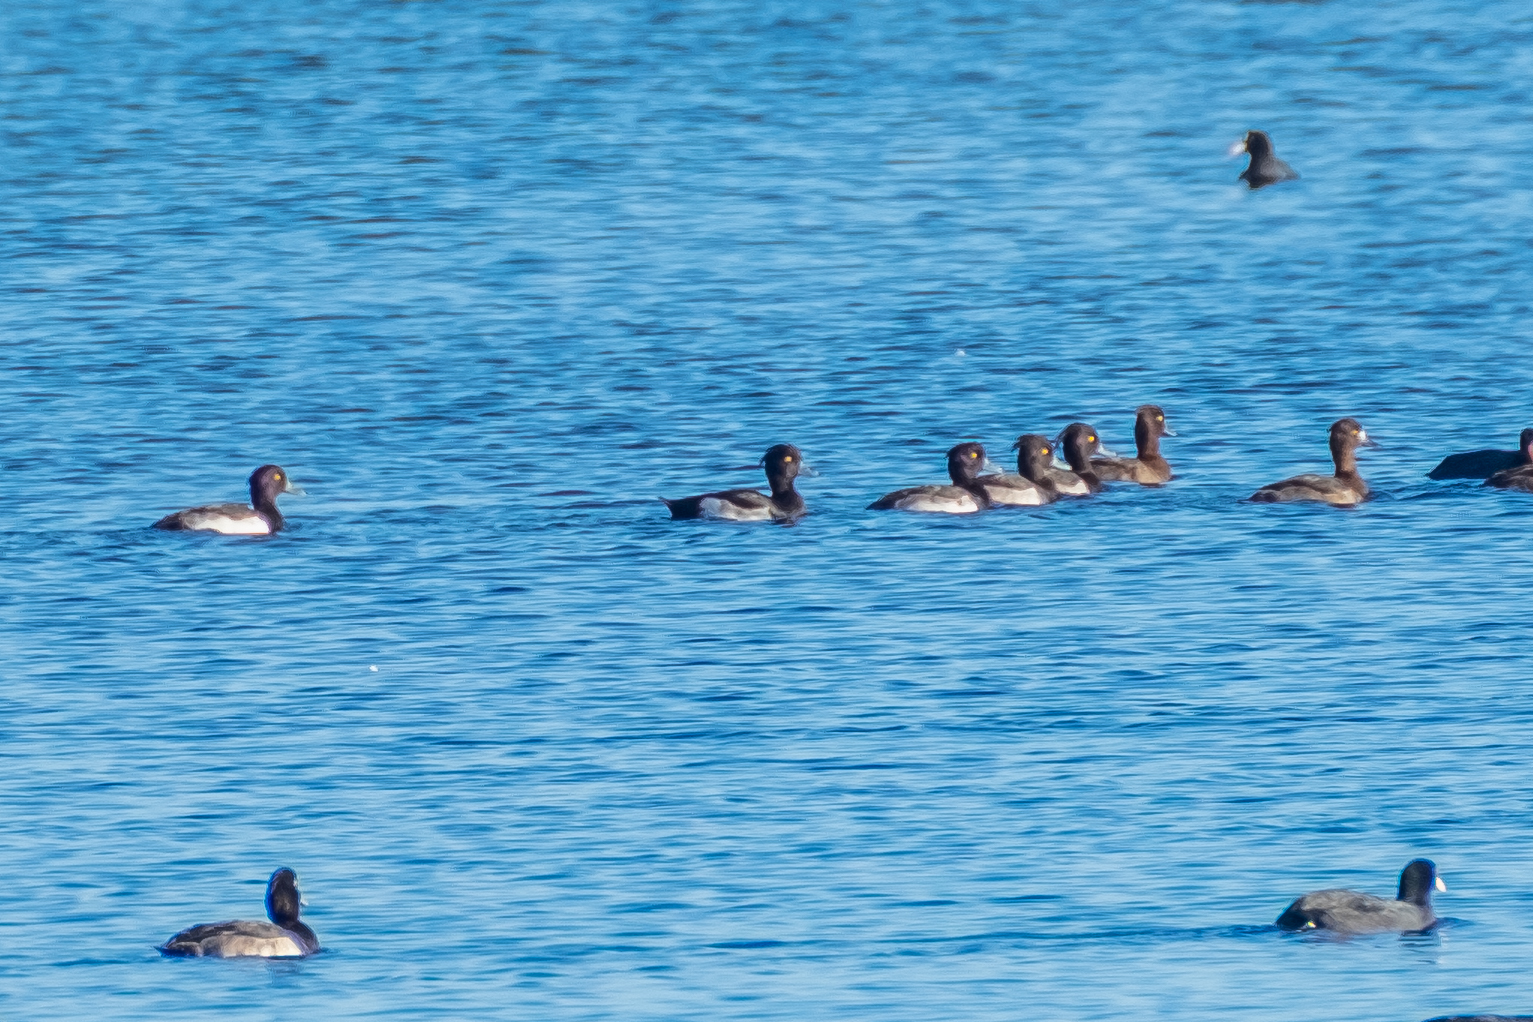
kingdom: Animalia
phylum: Chordata
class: Aves
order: Anseriformes
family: Anatidae
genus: Aythya
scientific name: Aythya fuligula
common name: Tufted duck
